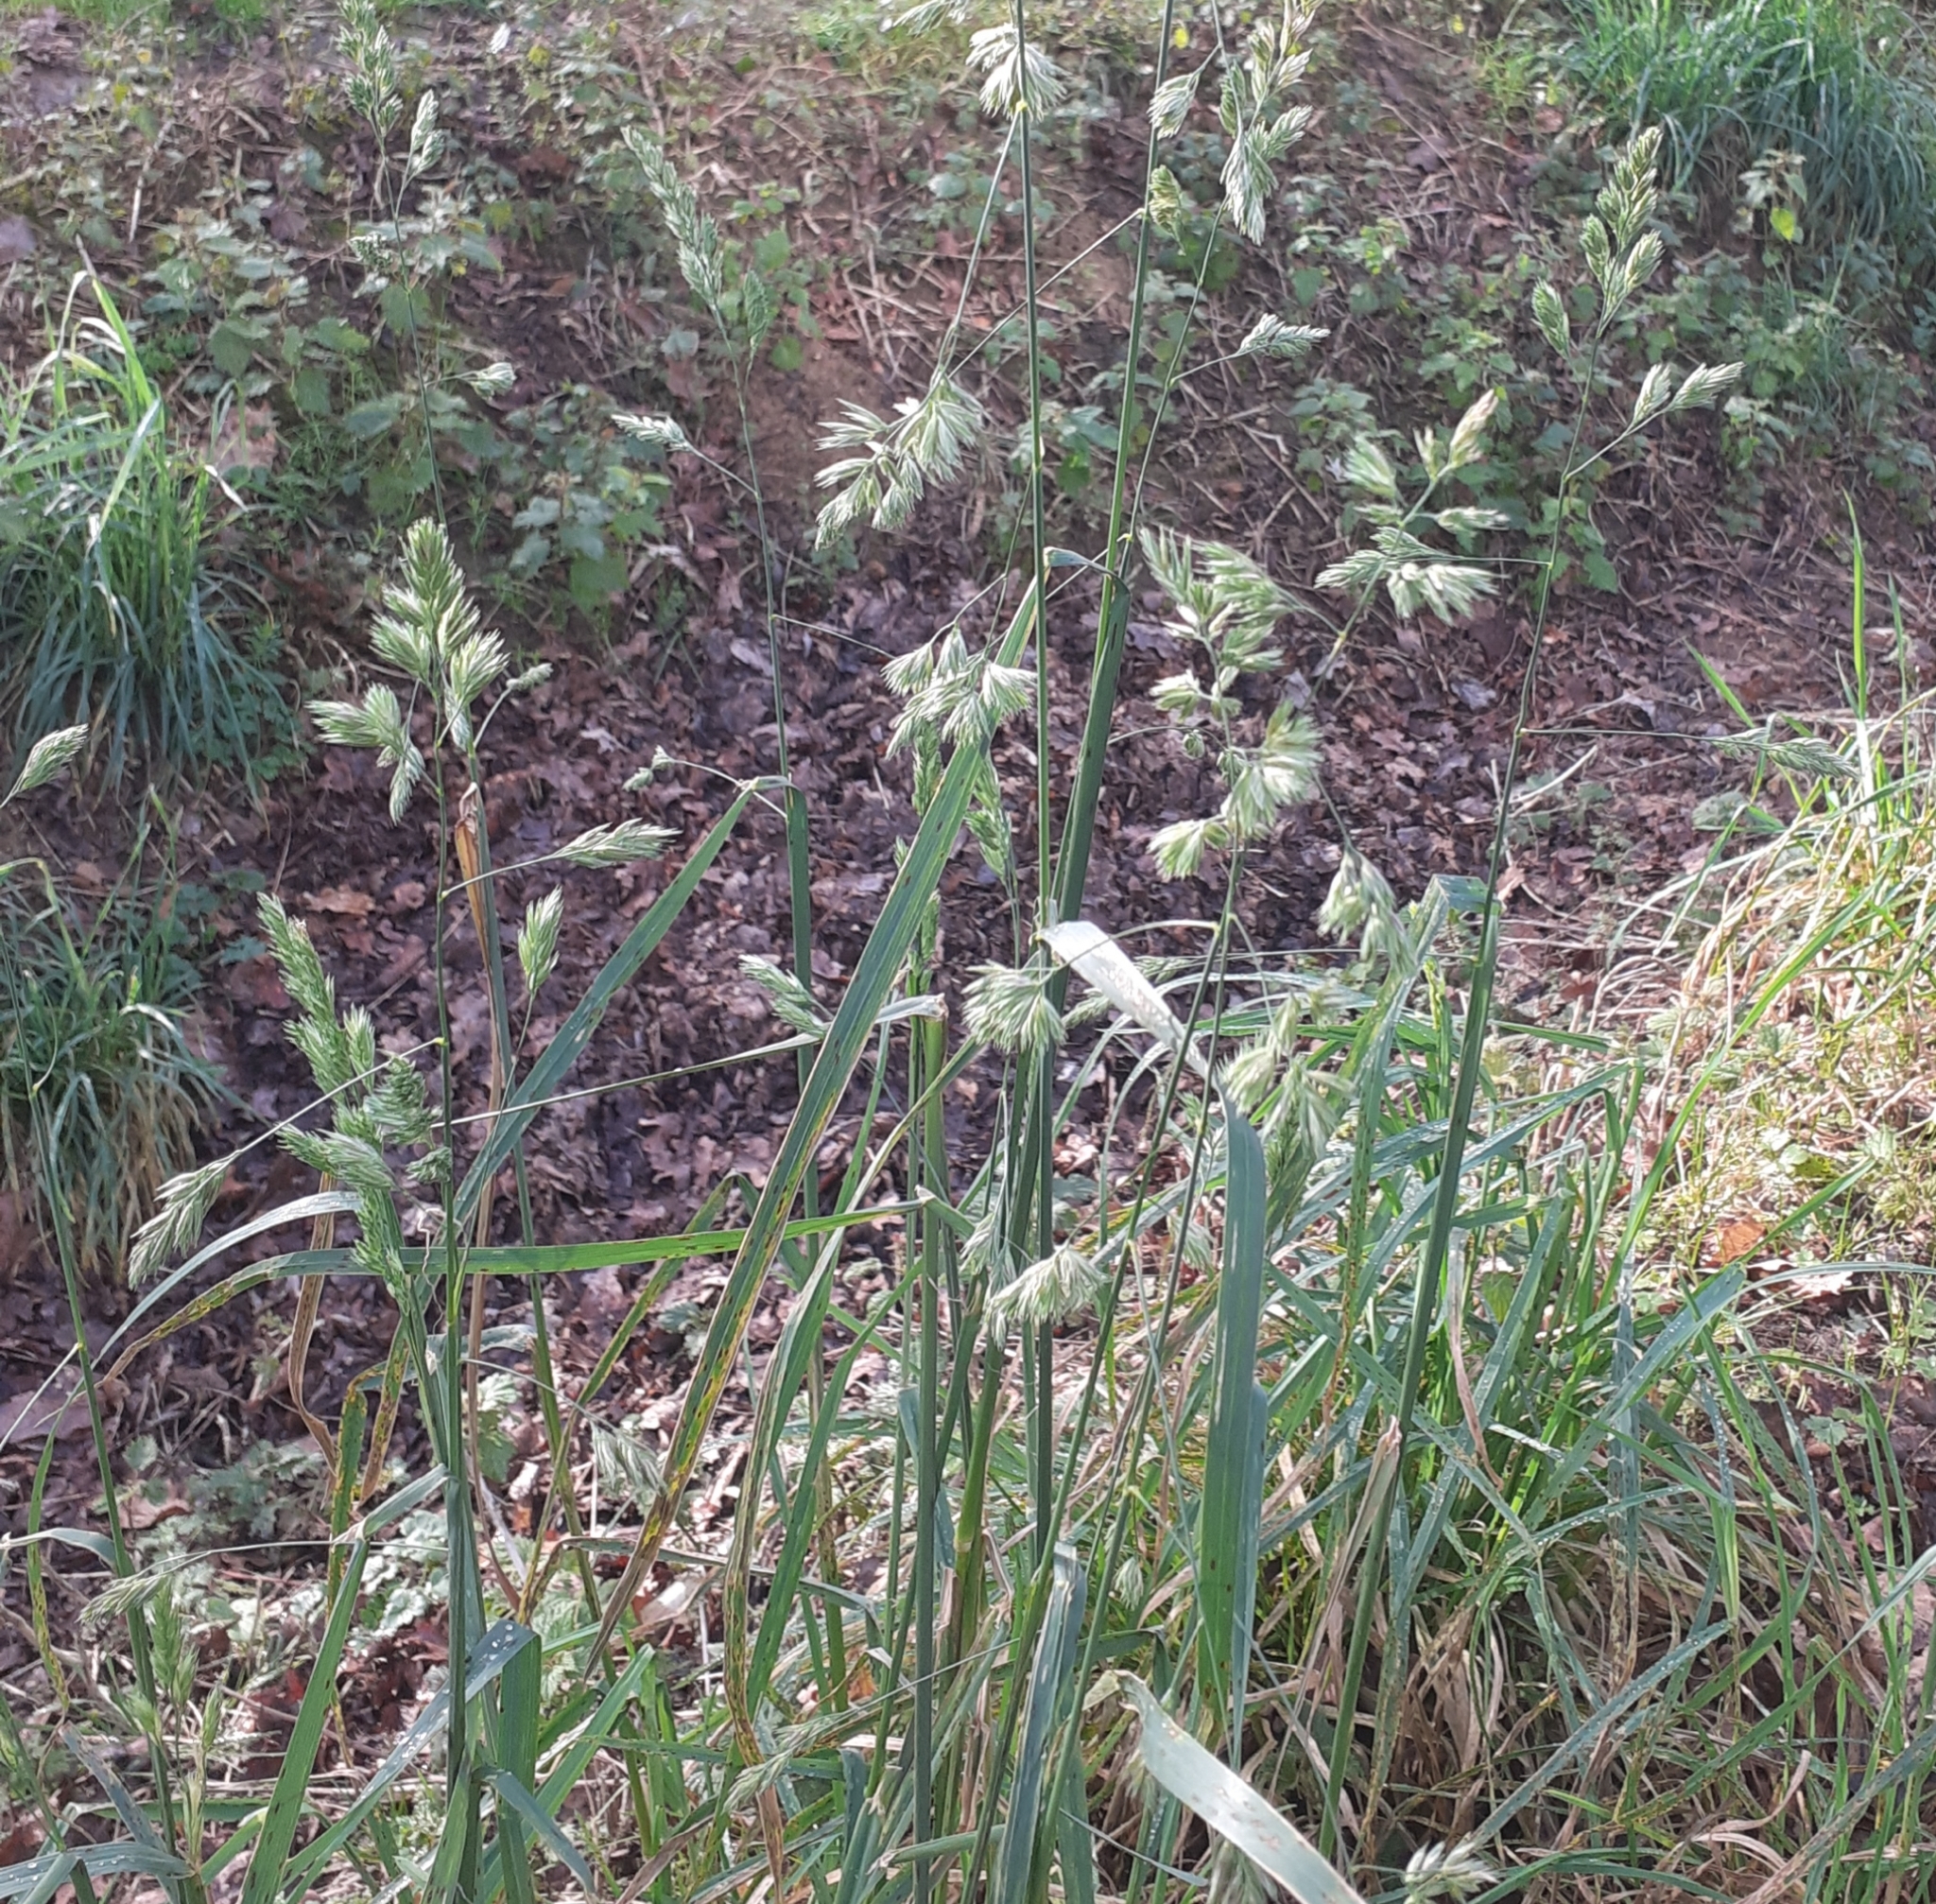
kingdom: Plantae
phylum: Tracheophyta
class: Liliopsida
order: Poales
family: Poaceae
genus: Dactylis
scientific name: Dactylis glomerata
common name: Orchardgrass
